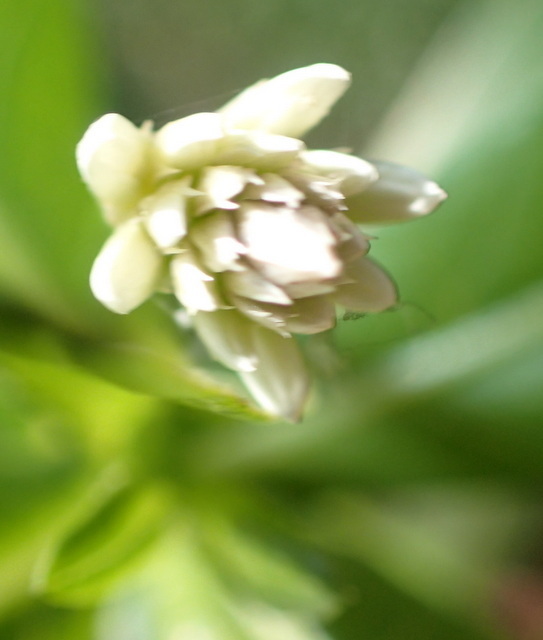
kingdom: Plantae
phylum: Tracheophyta
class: Magnoliopsida
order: Caryophyllales
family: Amaranthaceae
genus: Alternanthera
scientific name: Alternanthera philoxeroides
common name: Alligatorweed
